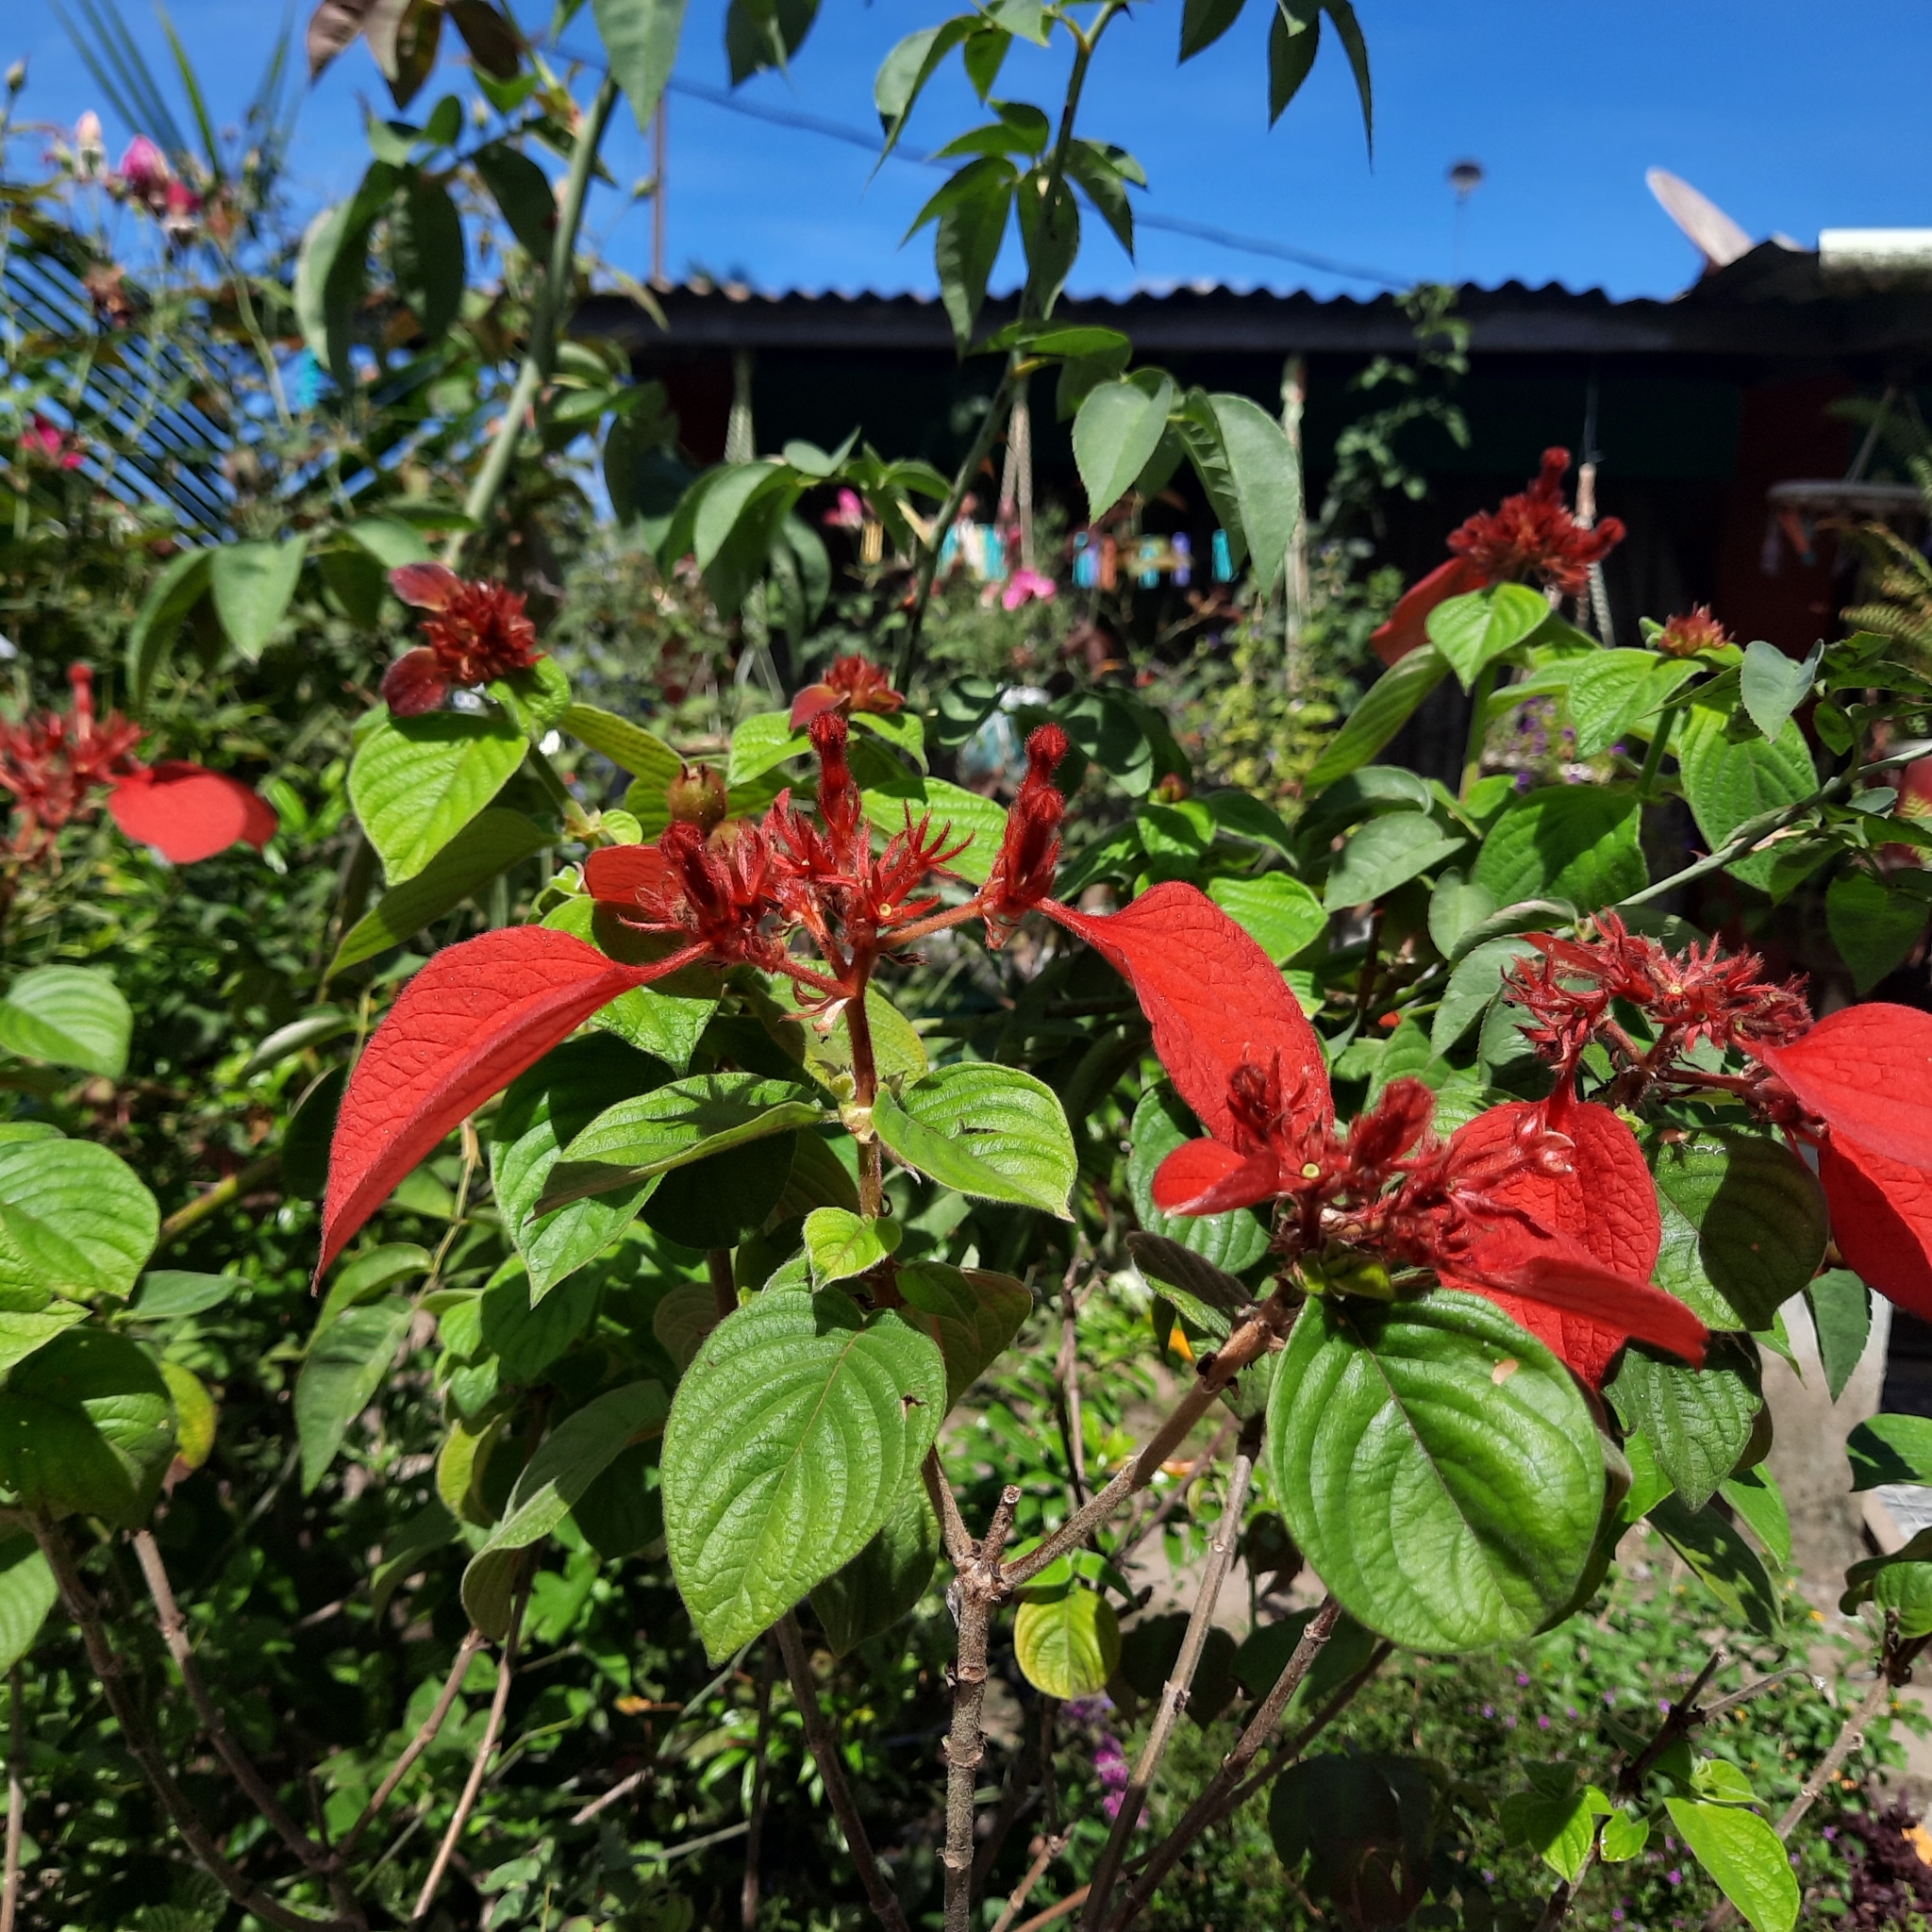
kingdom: Plantae
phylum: Tracheophyta
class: Magnoliopsida
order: Gentianales
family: Rubiaceae
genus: Mussaenda
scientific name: Mussaenda erythrophylla
